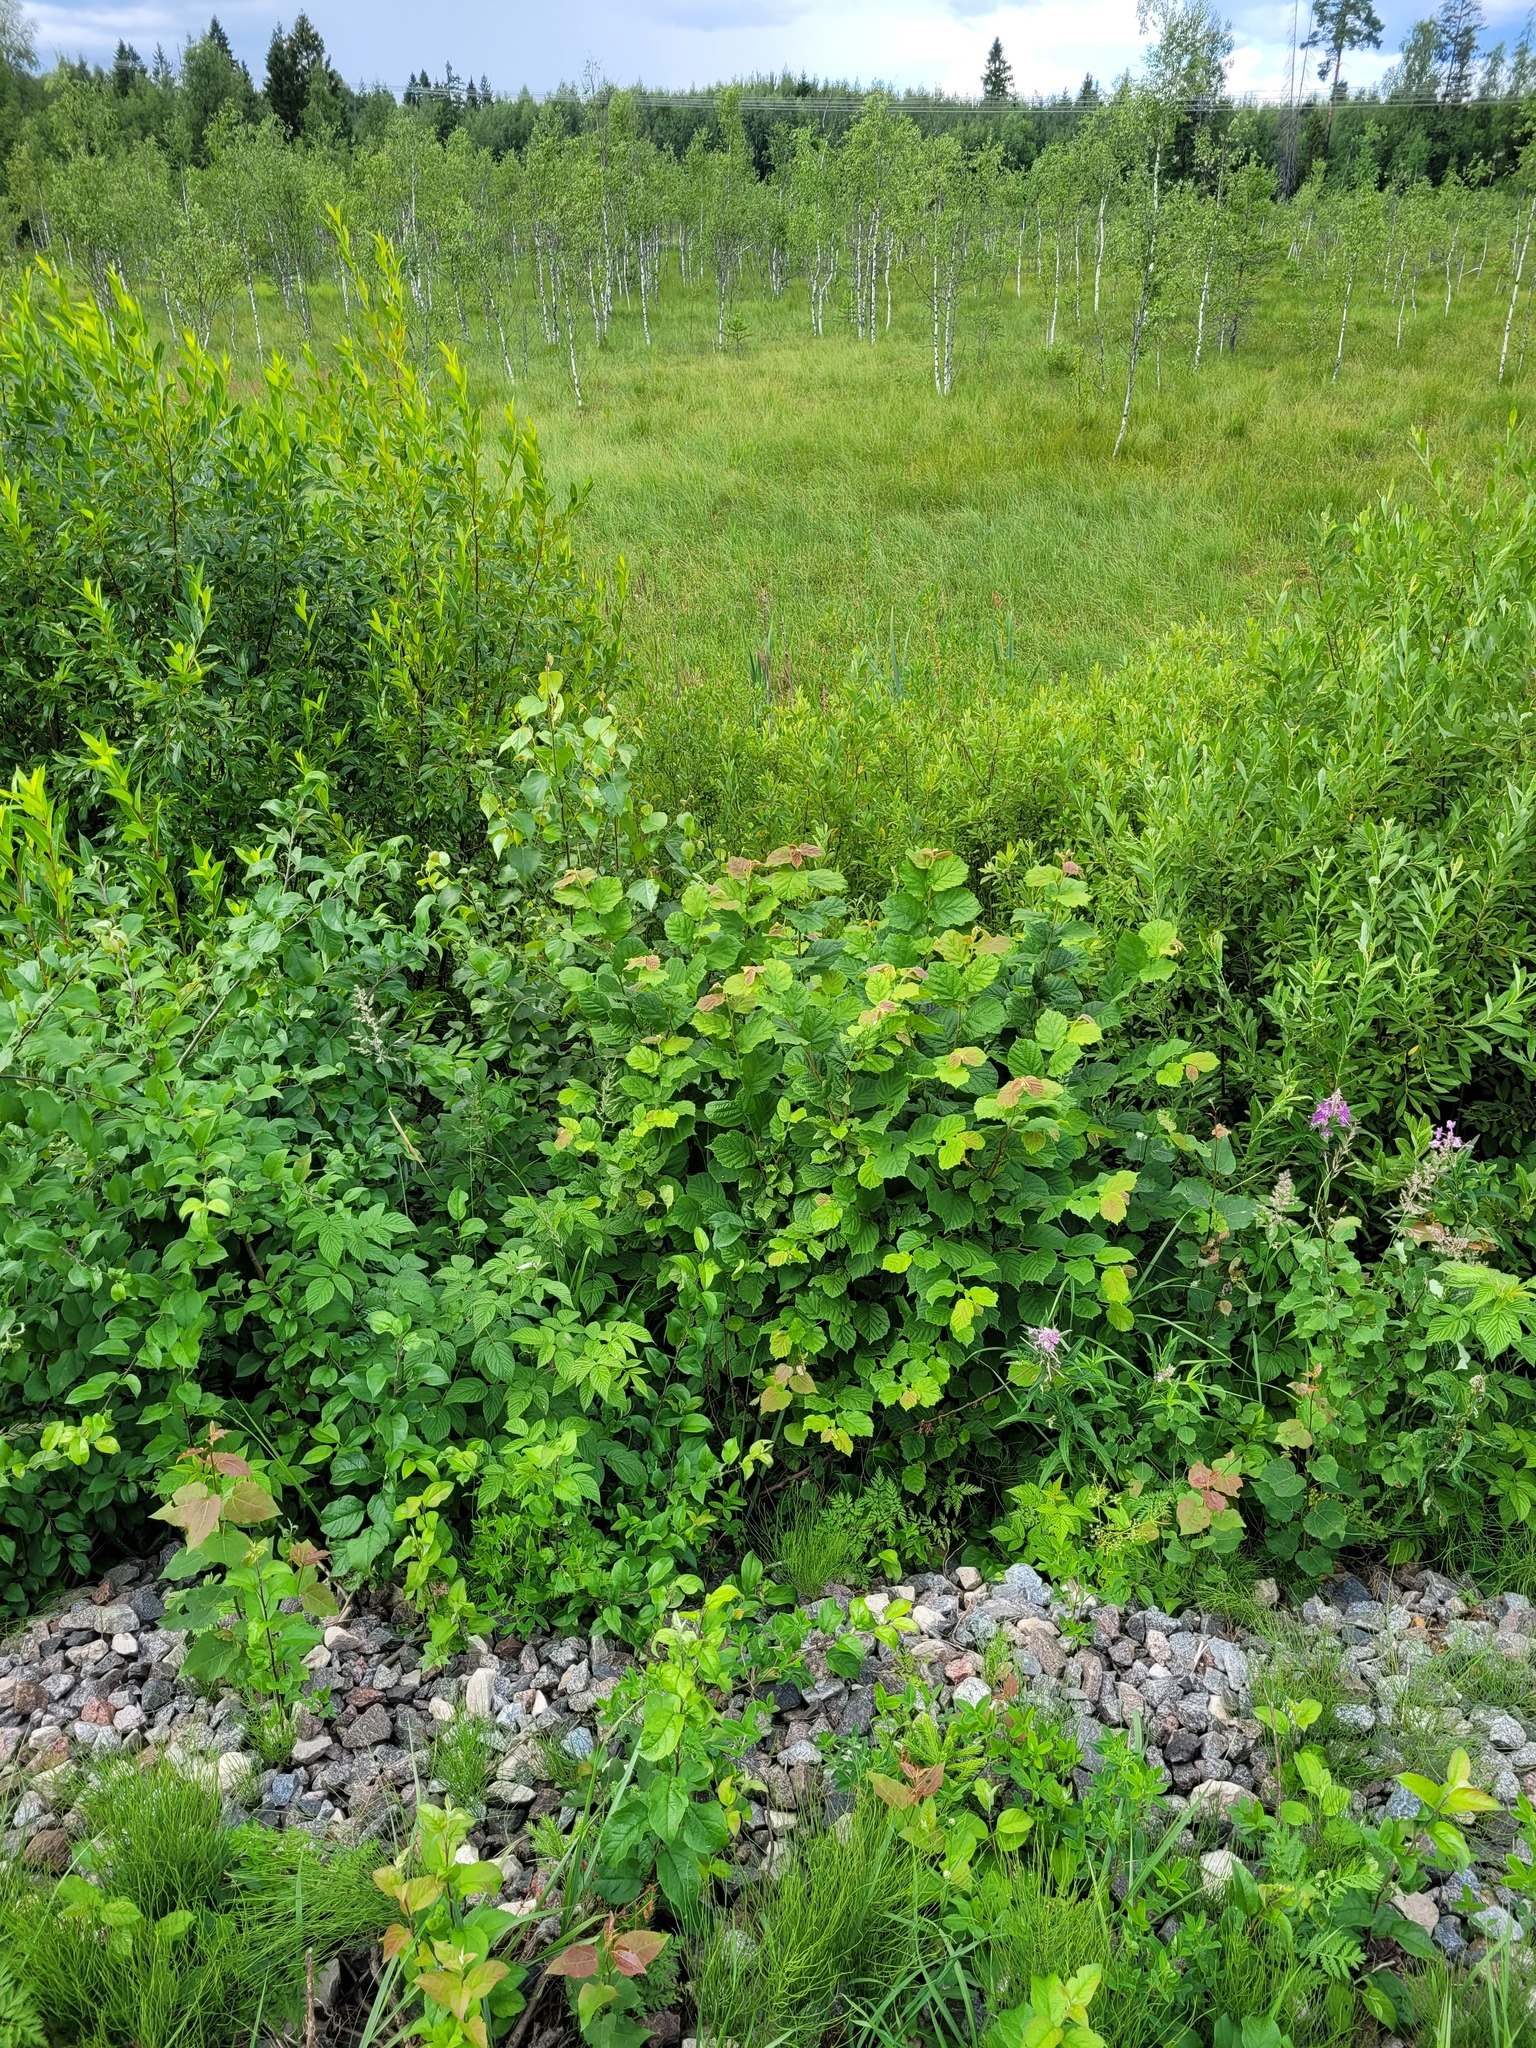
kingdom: Plantae
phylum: Tracheophyta
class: Magnoliopsida
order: Fagales
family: Betulaceae
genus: Corylus
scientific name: Corylus avellana
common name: European hazel
